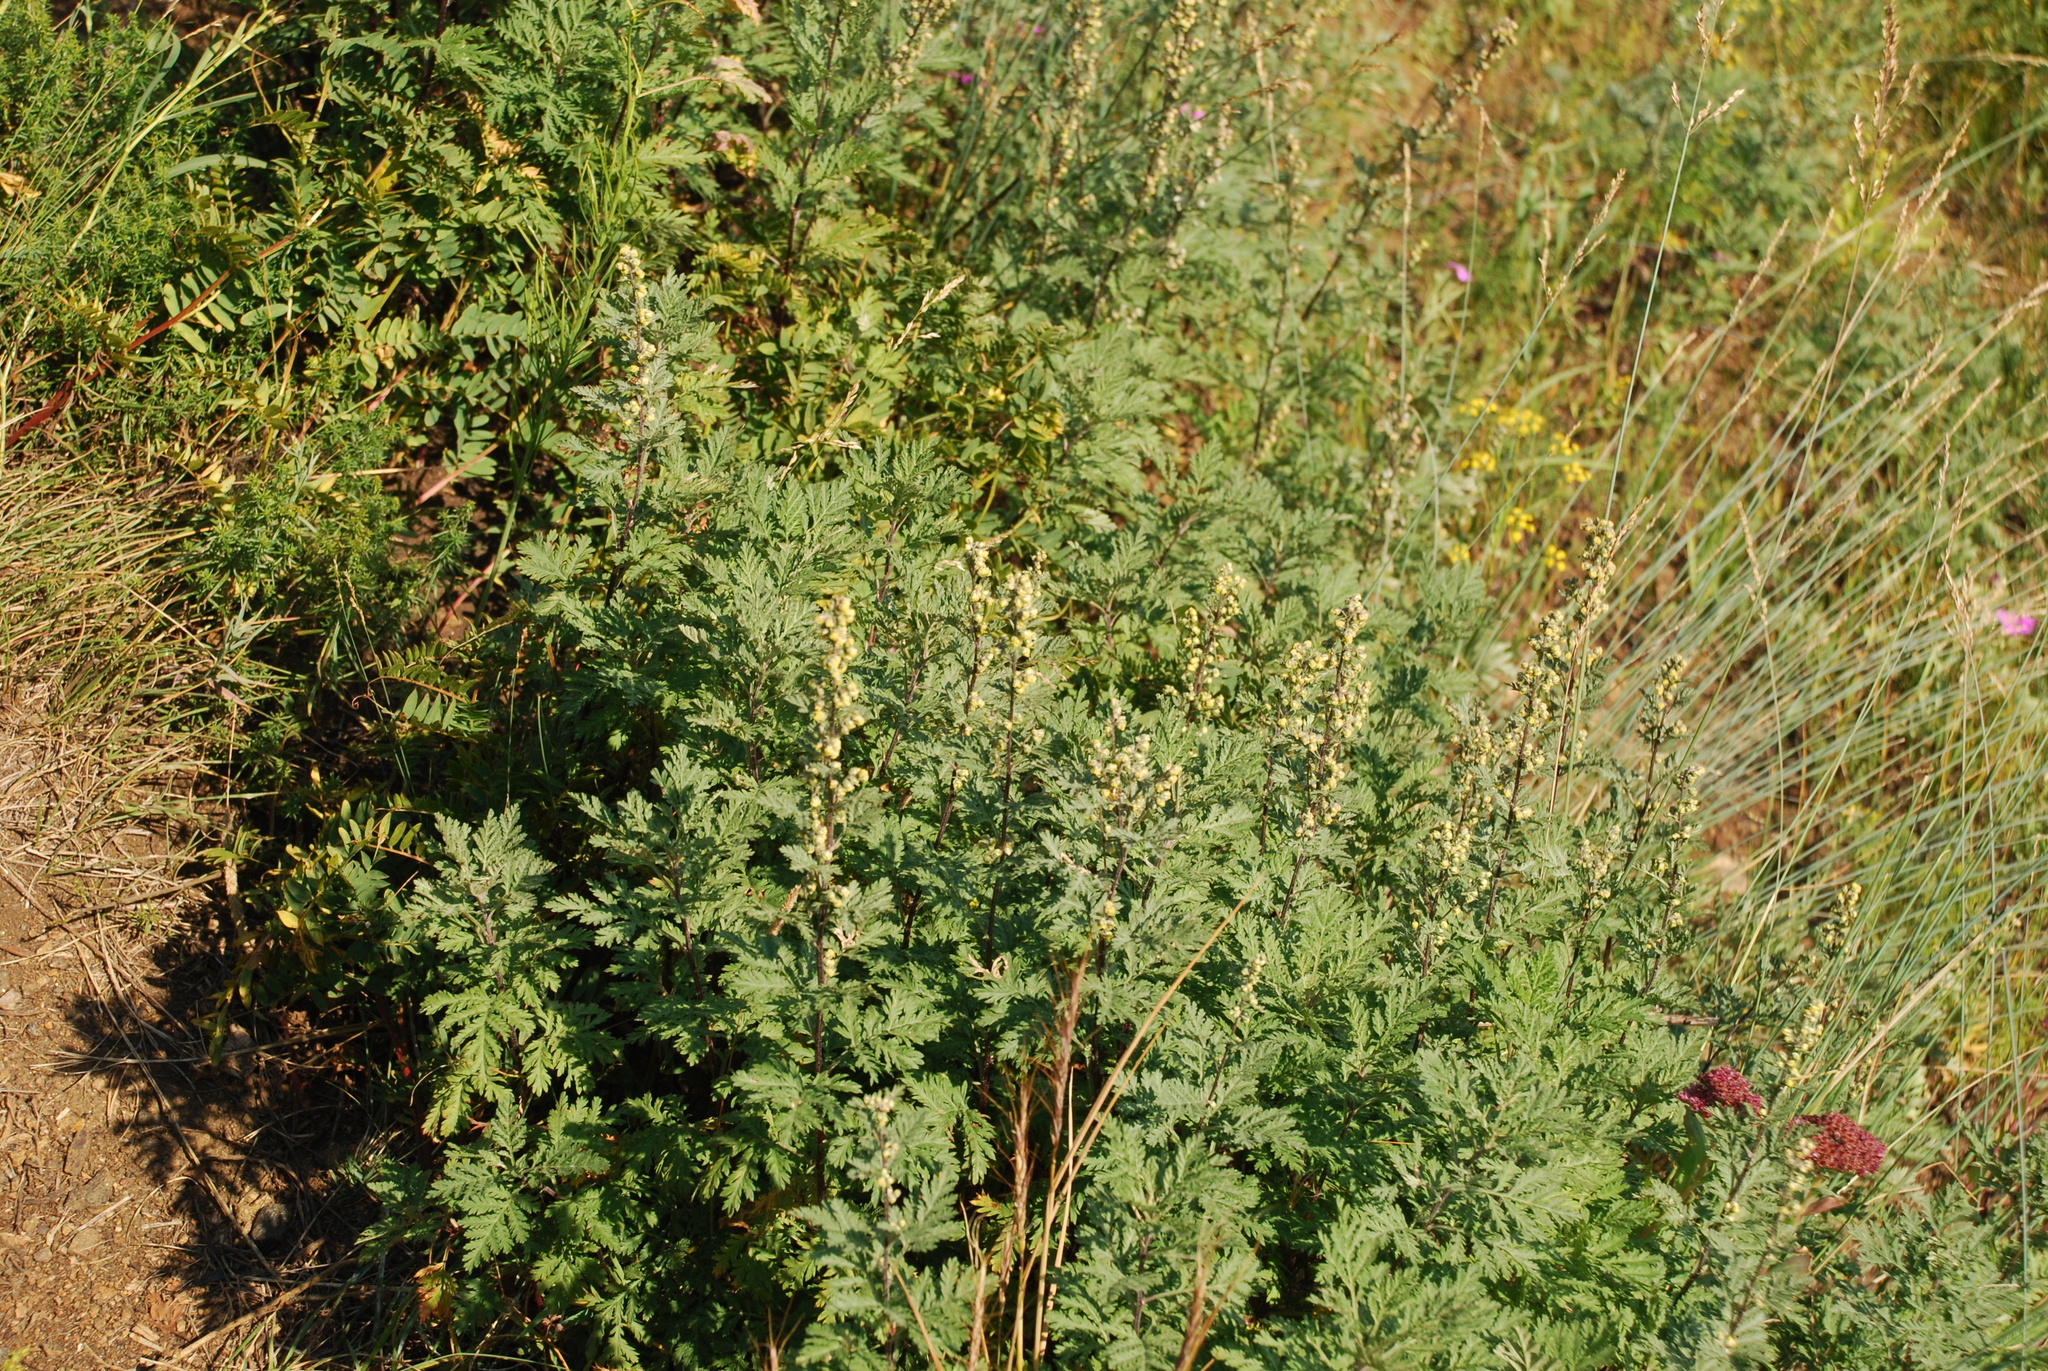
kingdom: Plantae
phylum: Tracheophyta
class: Magnoliopsida
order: Asterales
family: Asteraceae
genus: Artemisia
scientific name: Artemisia gmelinii
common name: Gmelin's wormwood
